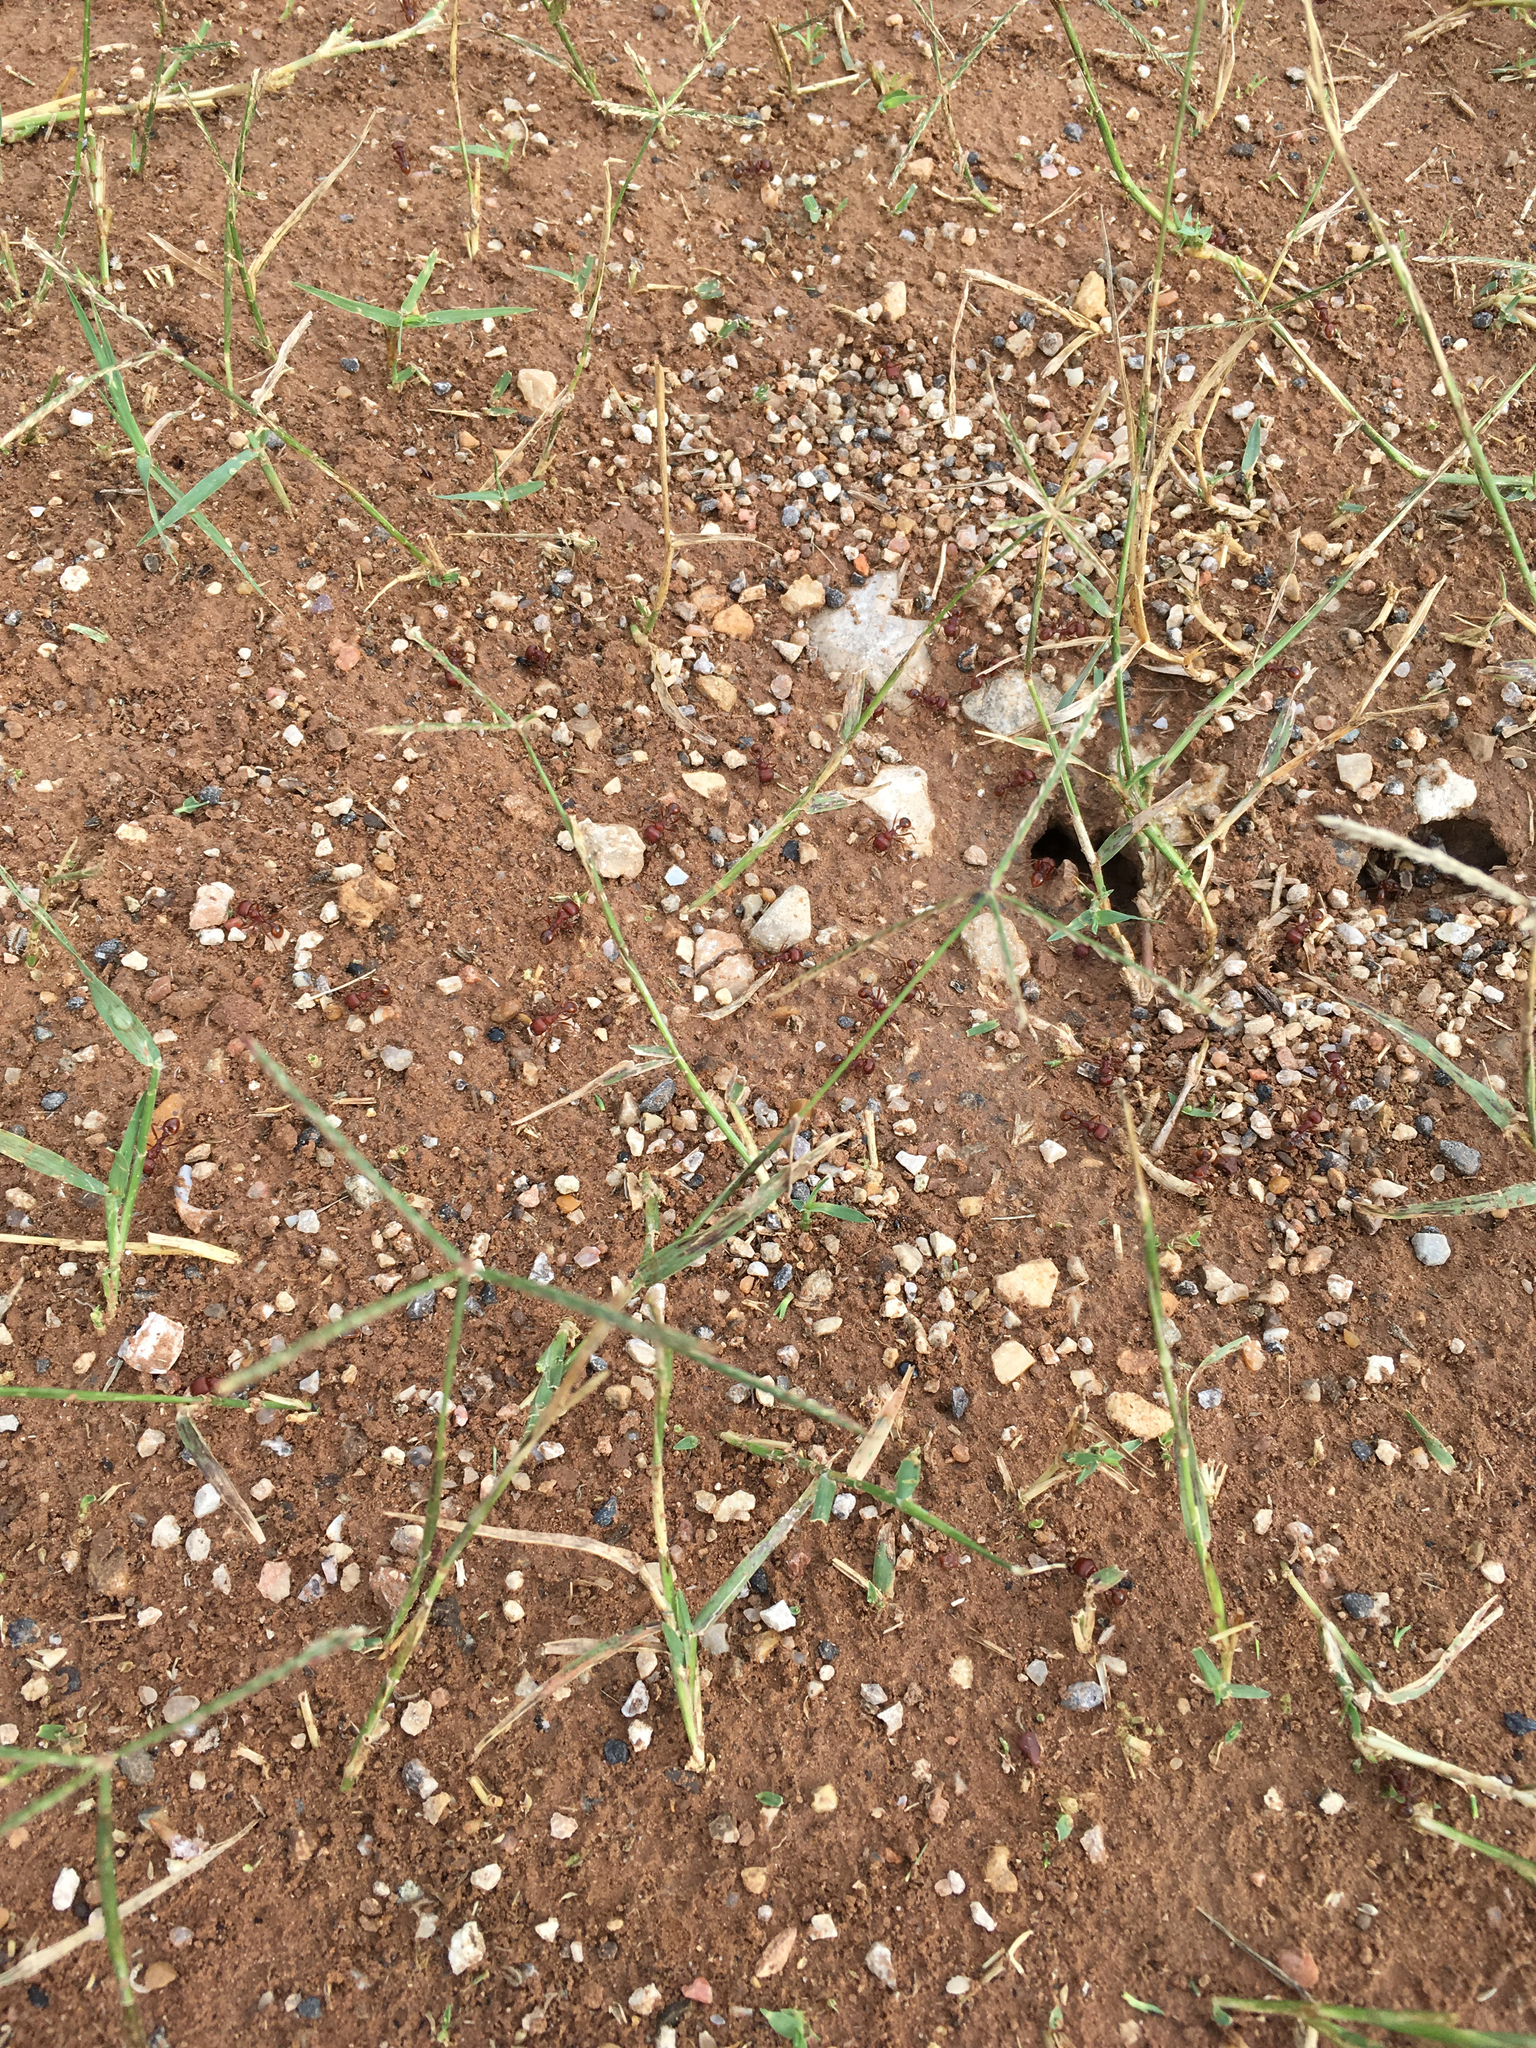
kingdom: Animalia
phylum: Arthropoda
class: Insecta
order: Hymenoptera
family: Formicidae
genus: Pogonomyrmex
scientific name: Pogonomyrmex barbatus
